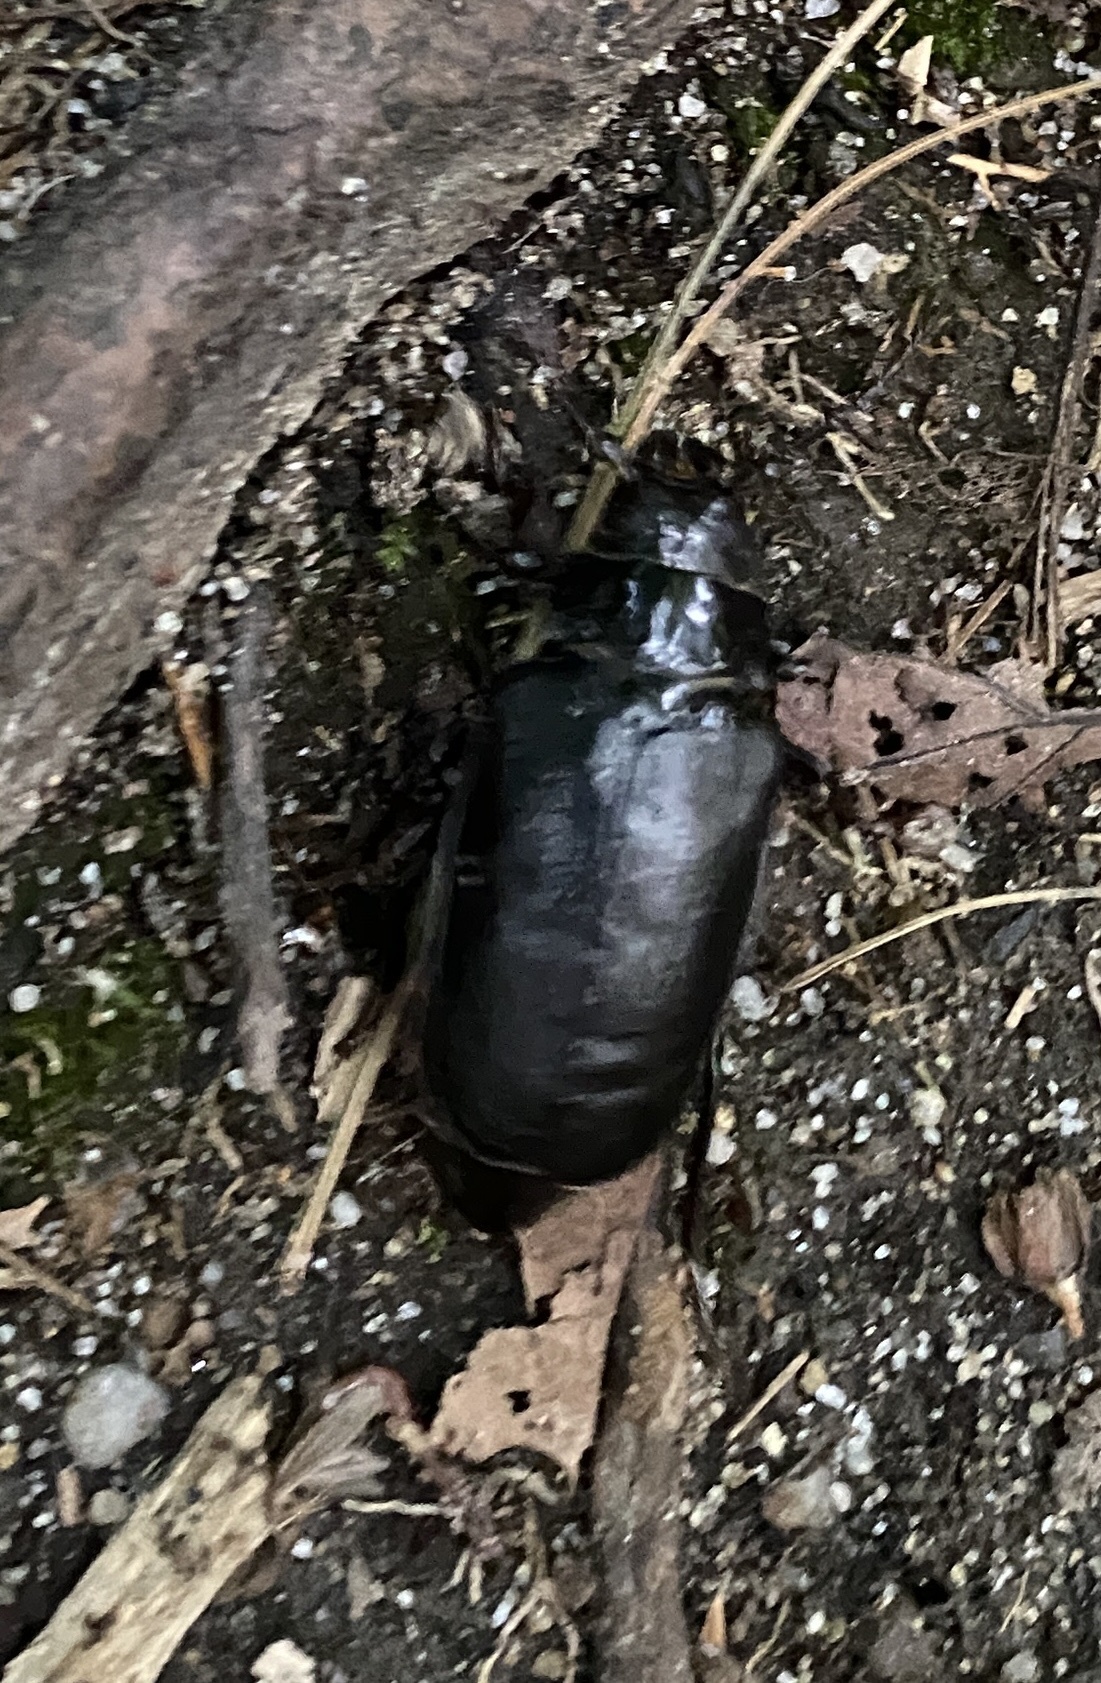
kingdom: Animalia
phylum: Arthropoda
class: Insecta
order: Coleoptera
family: Cerambycidae
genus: Prionus
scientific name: Prionus laticollis
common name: Broad necked prionus
